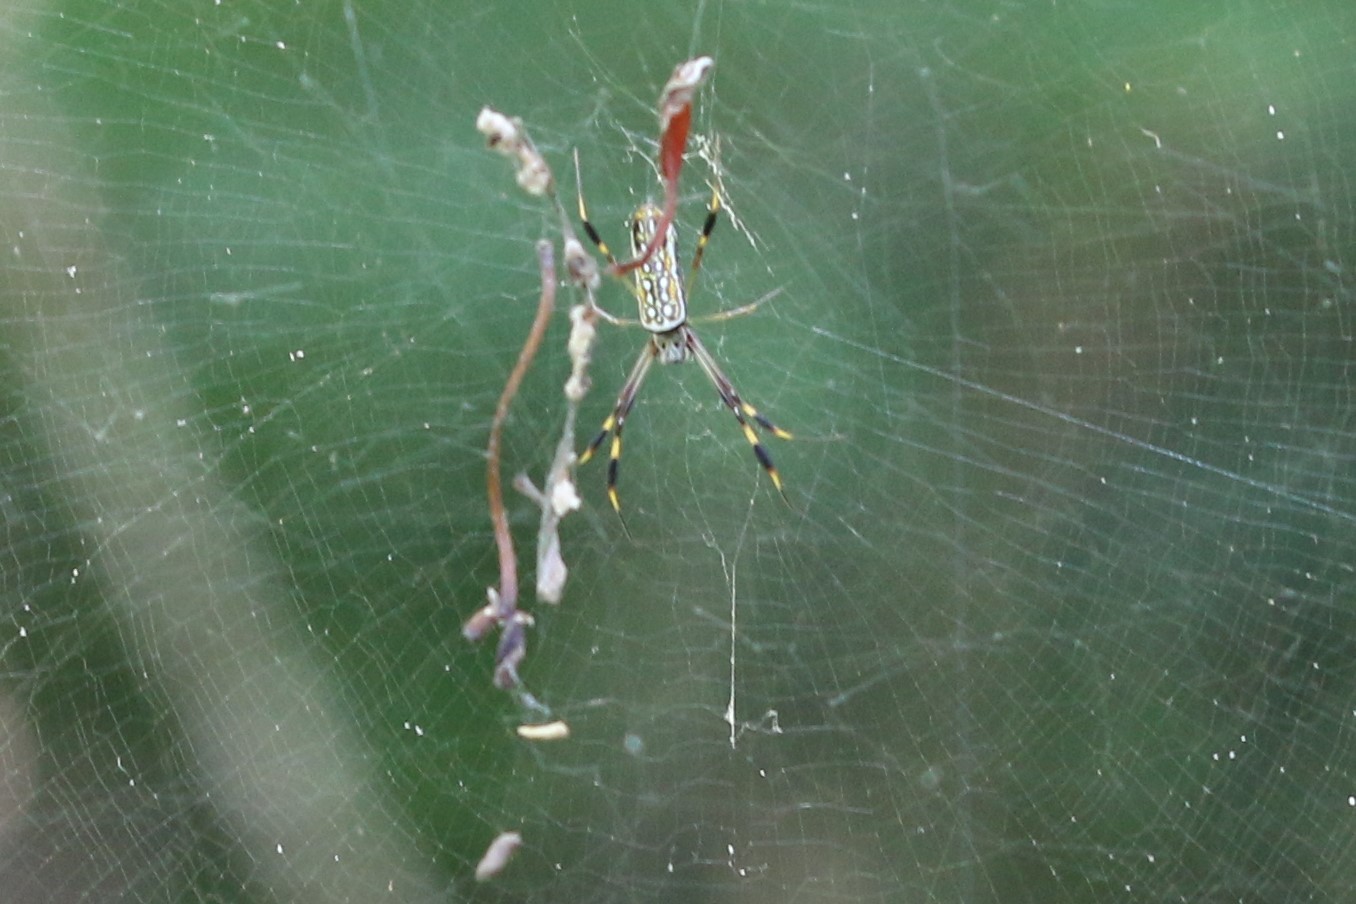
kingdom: Animalia
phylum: Arthropoda
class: Arachnida
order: Araneae
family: Araneidae
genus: Trichonephila
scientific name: Trichonephila clavipes
